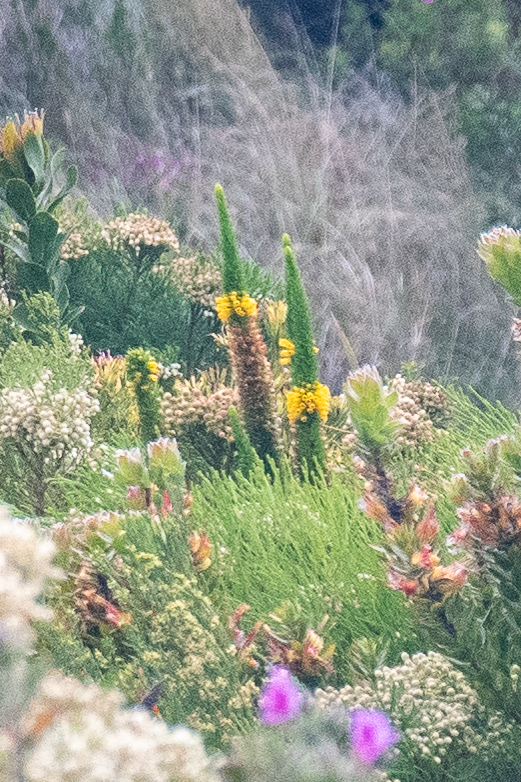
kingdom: Plantae
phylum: Tracheophyta
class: Magnoliopsida
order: Ericales
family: Ericaceae
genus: Erica
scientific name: Erica patersonia
